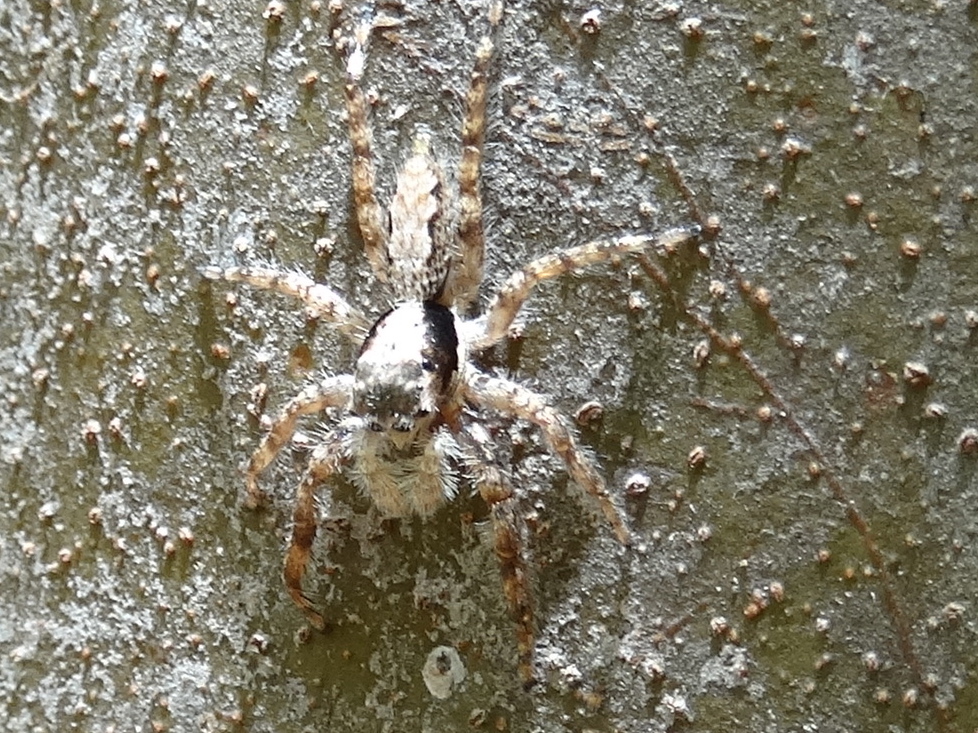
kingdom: Animalia
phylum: Arthropoda
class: Arachnida
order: Araneae
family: Salticidae
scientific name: Salticidae
